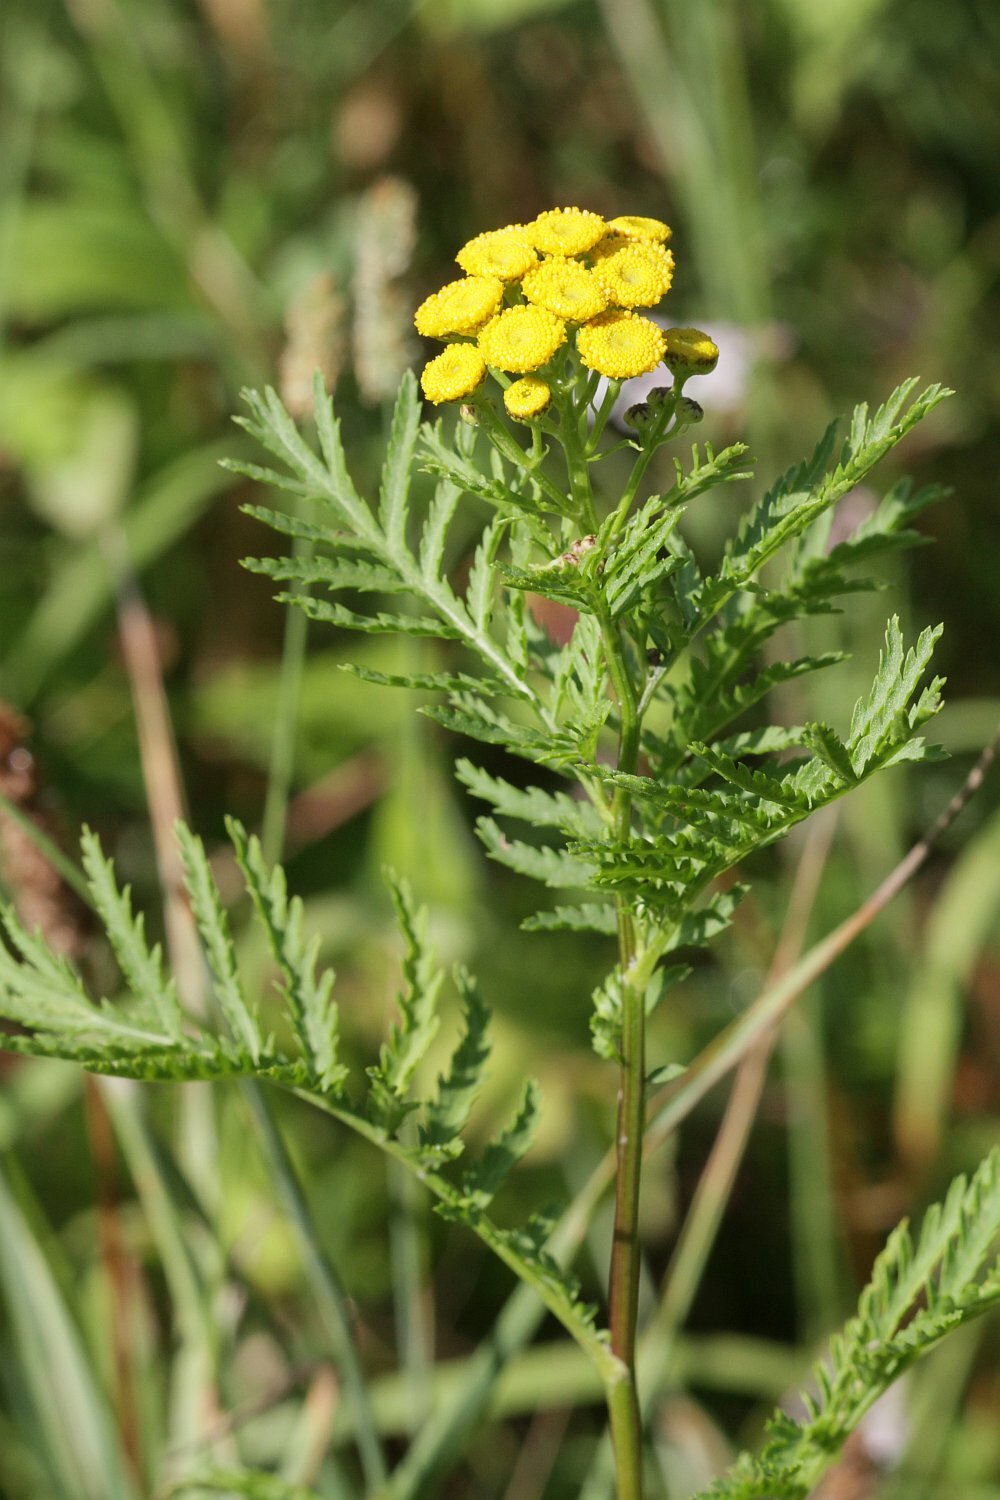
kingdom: Plantae
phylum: Tracheophyta
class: Magnoliopsida
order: Asterales
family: Asteraceae
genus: Tanacetum
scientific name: Tanacetum vulgare
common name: Common tansy
